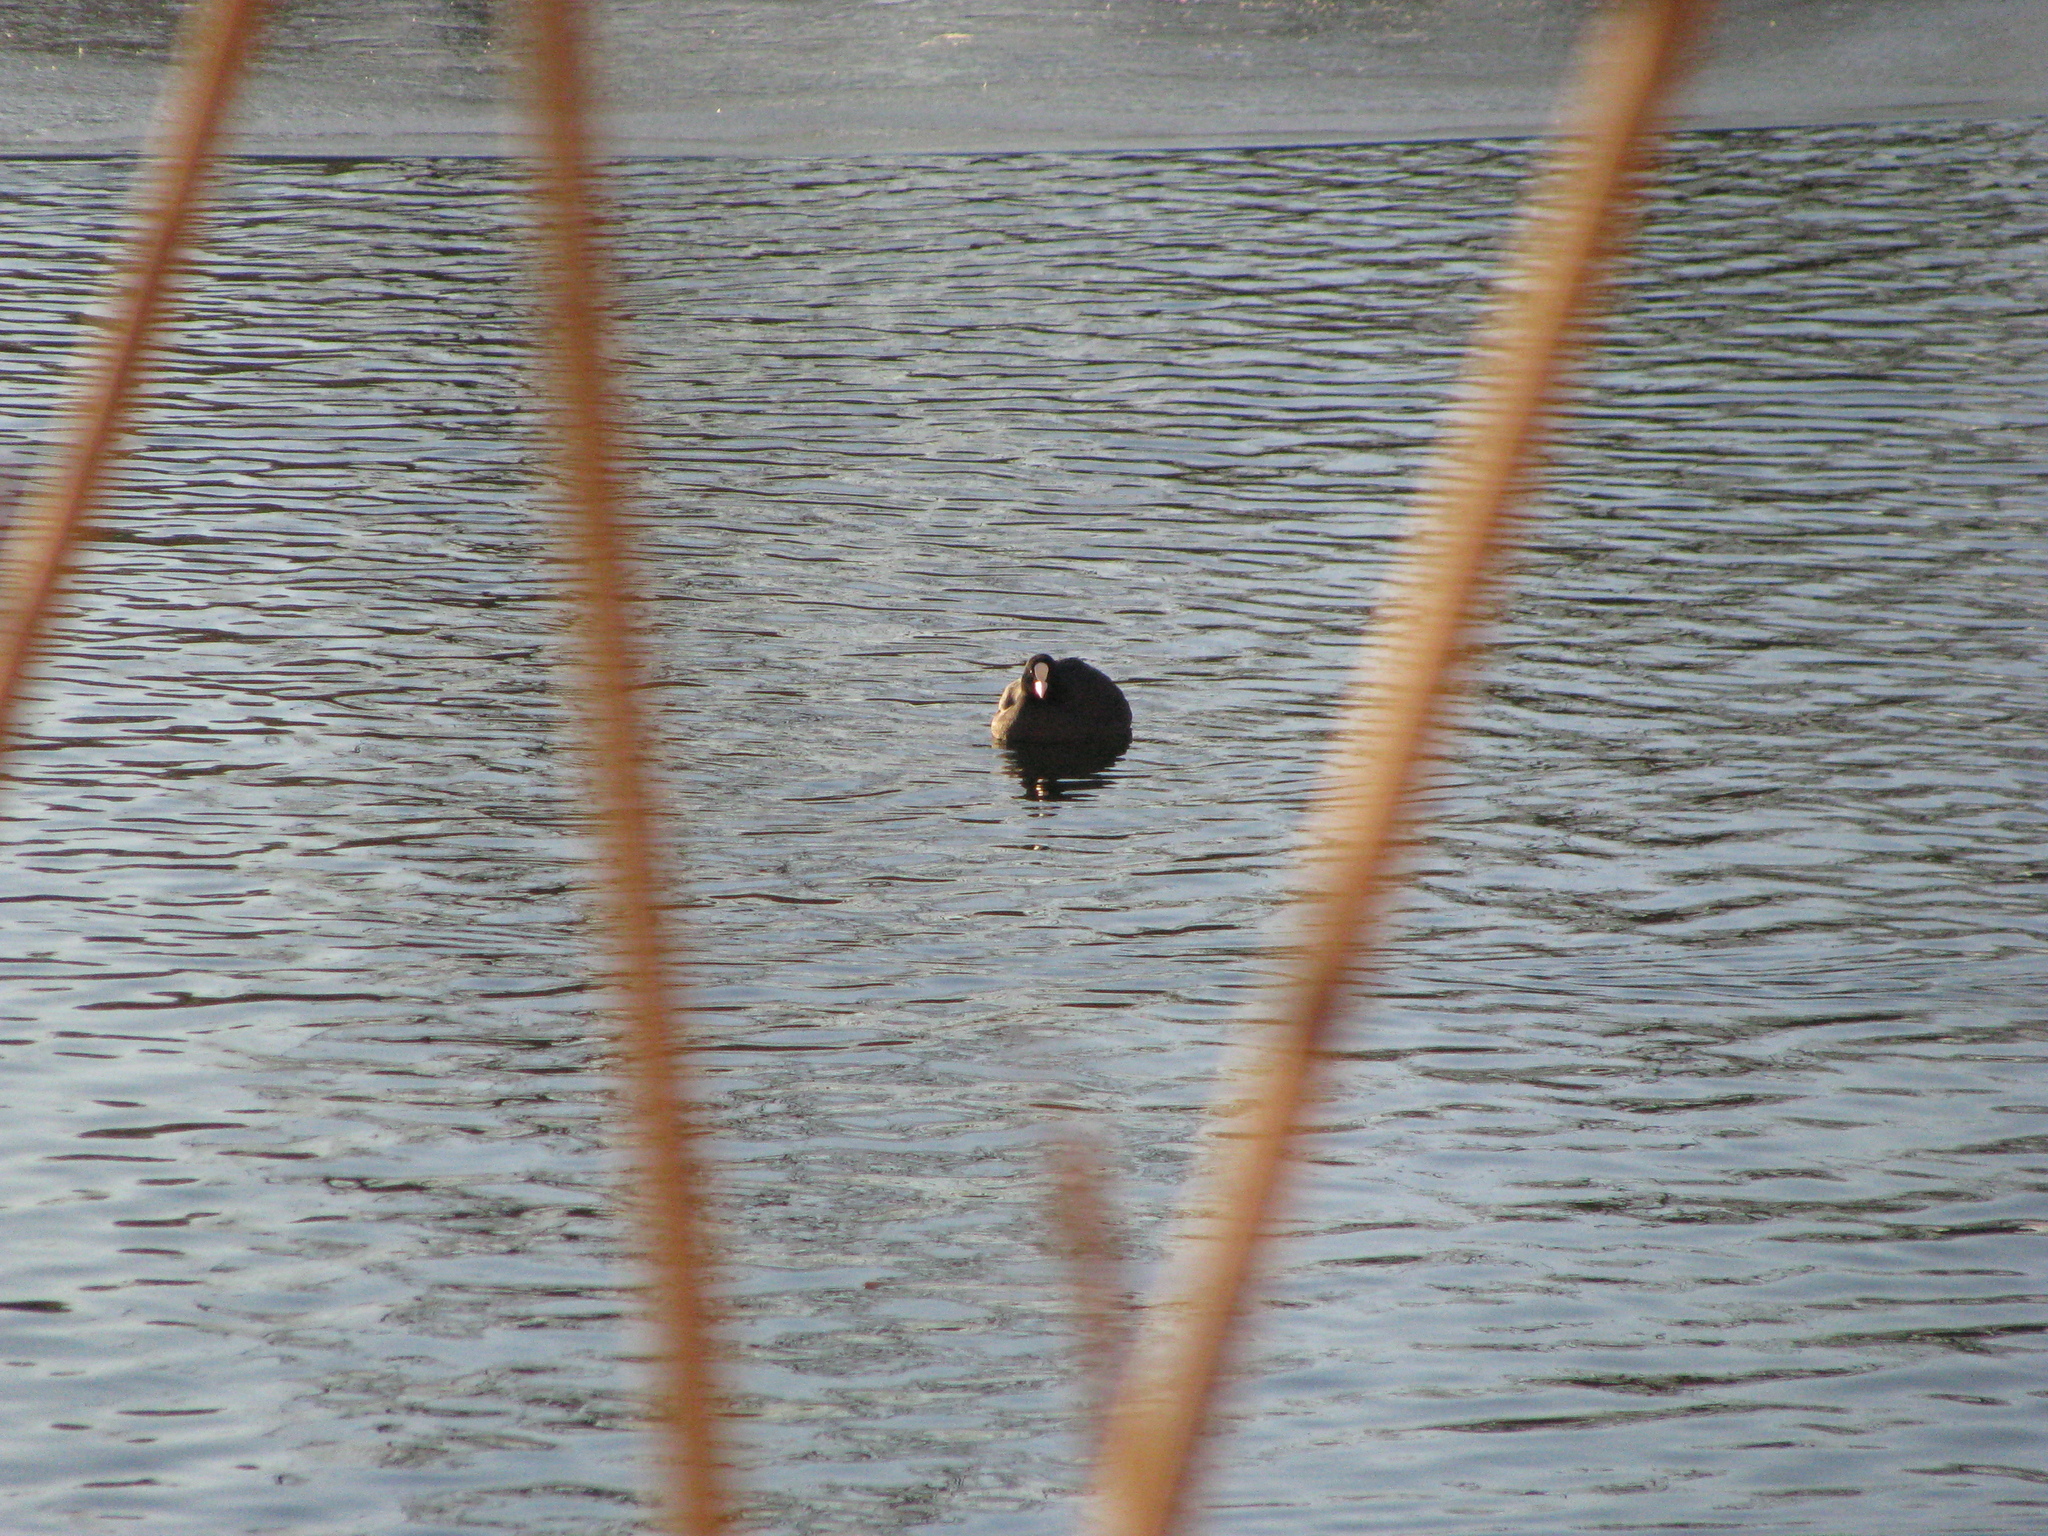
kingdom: Animalia
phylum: Chordata
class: Aves
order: Gruiformes
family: Rallidae
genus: Fulica
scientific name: Fulica atra
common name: Eurasian coot
